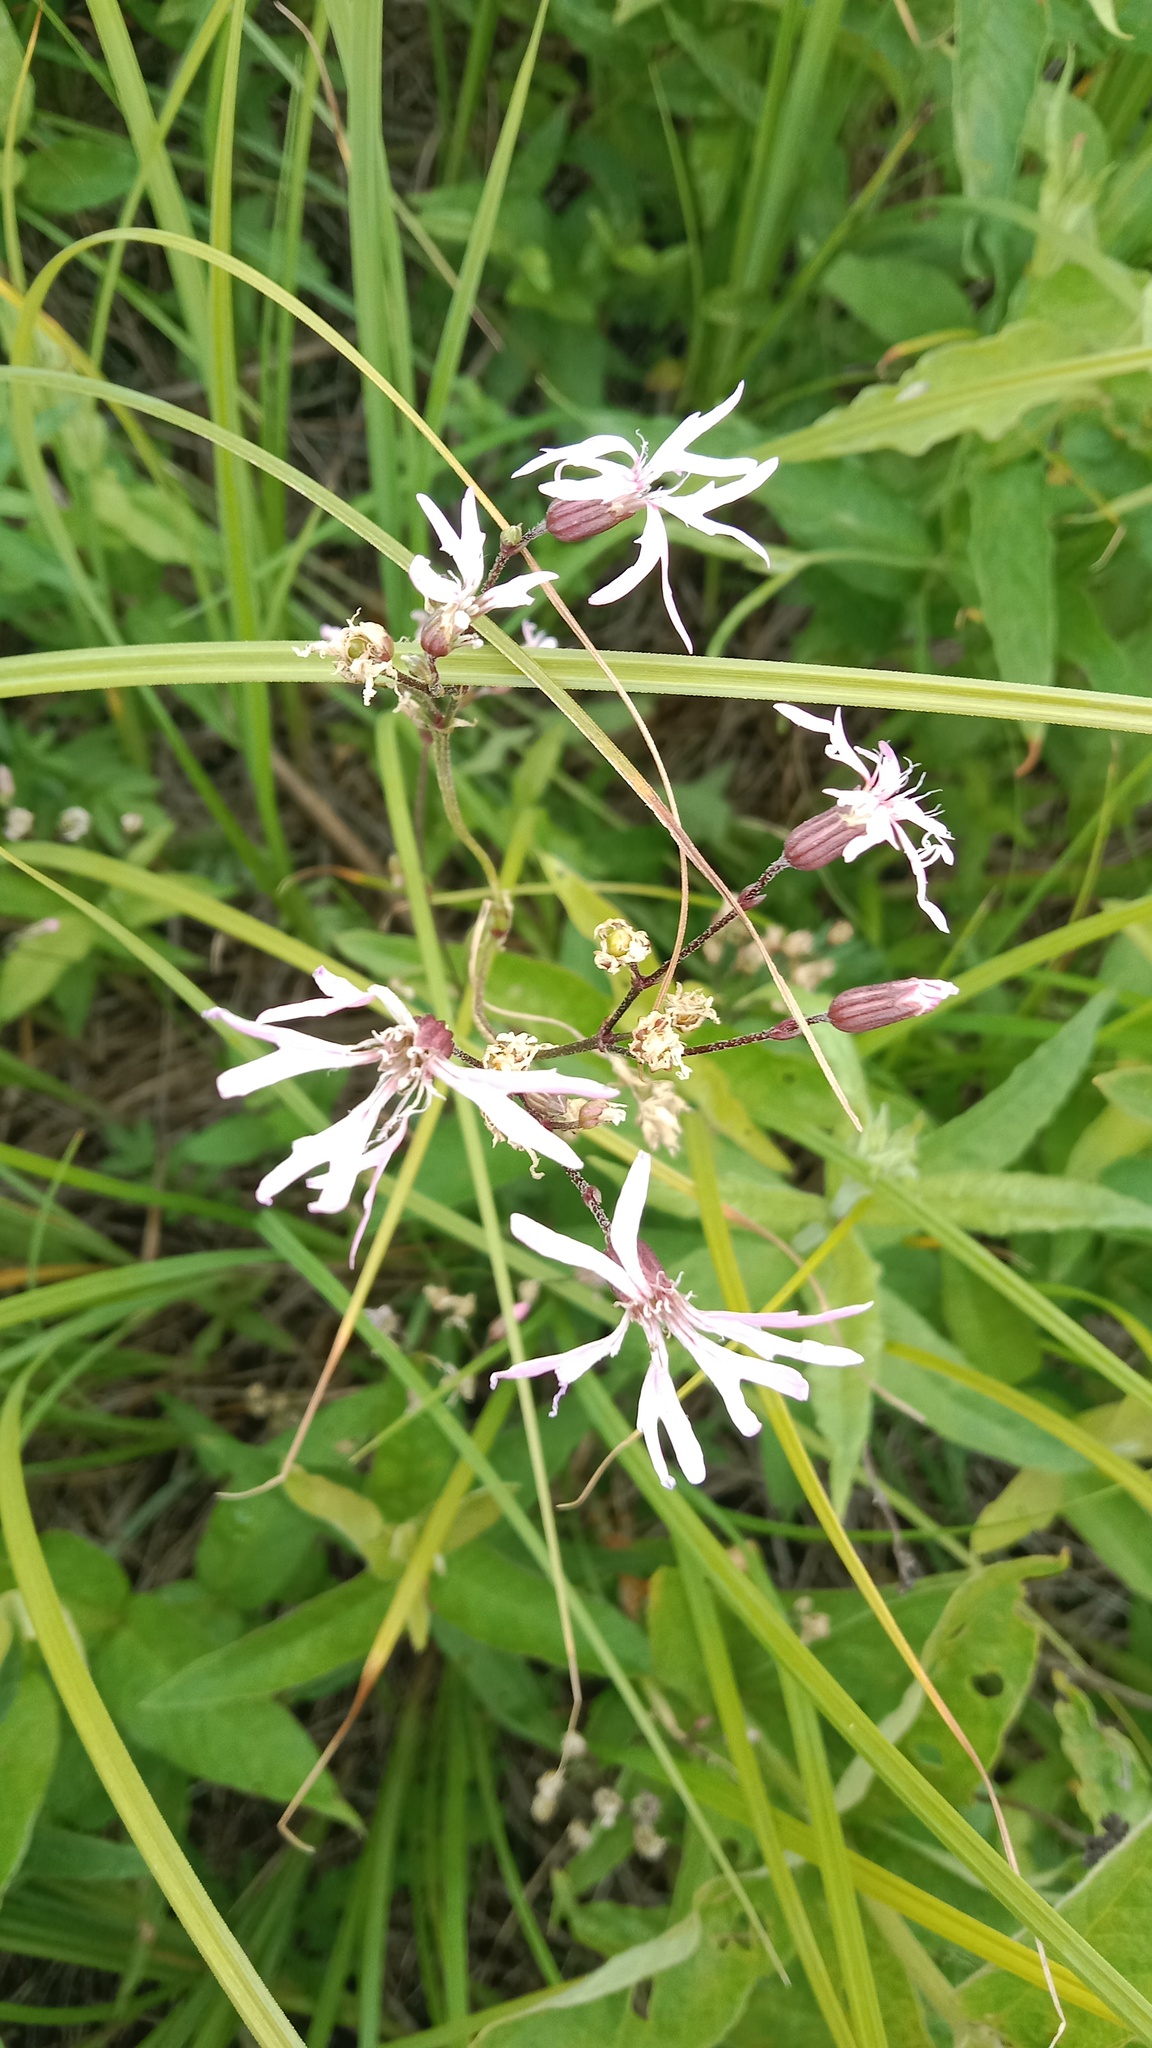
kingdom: Plantae
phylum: Tracheophyta
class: Magnoliopsida
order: Caryophyllales
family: Caryophyllaceae
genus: Silene
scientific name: Silene flos-cuculi
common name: Ragged-robin
